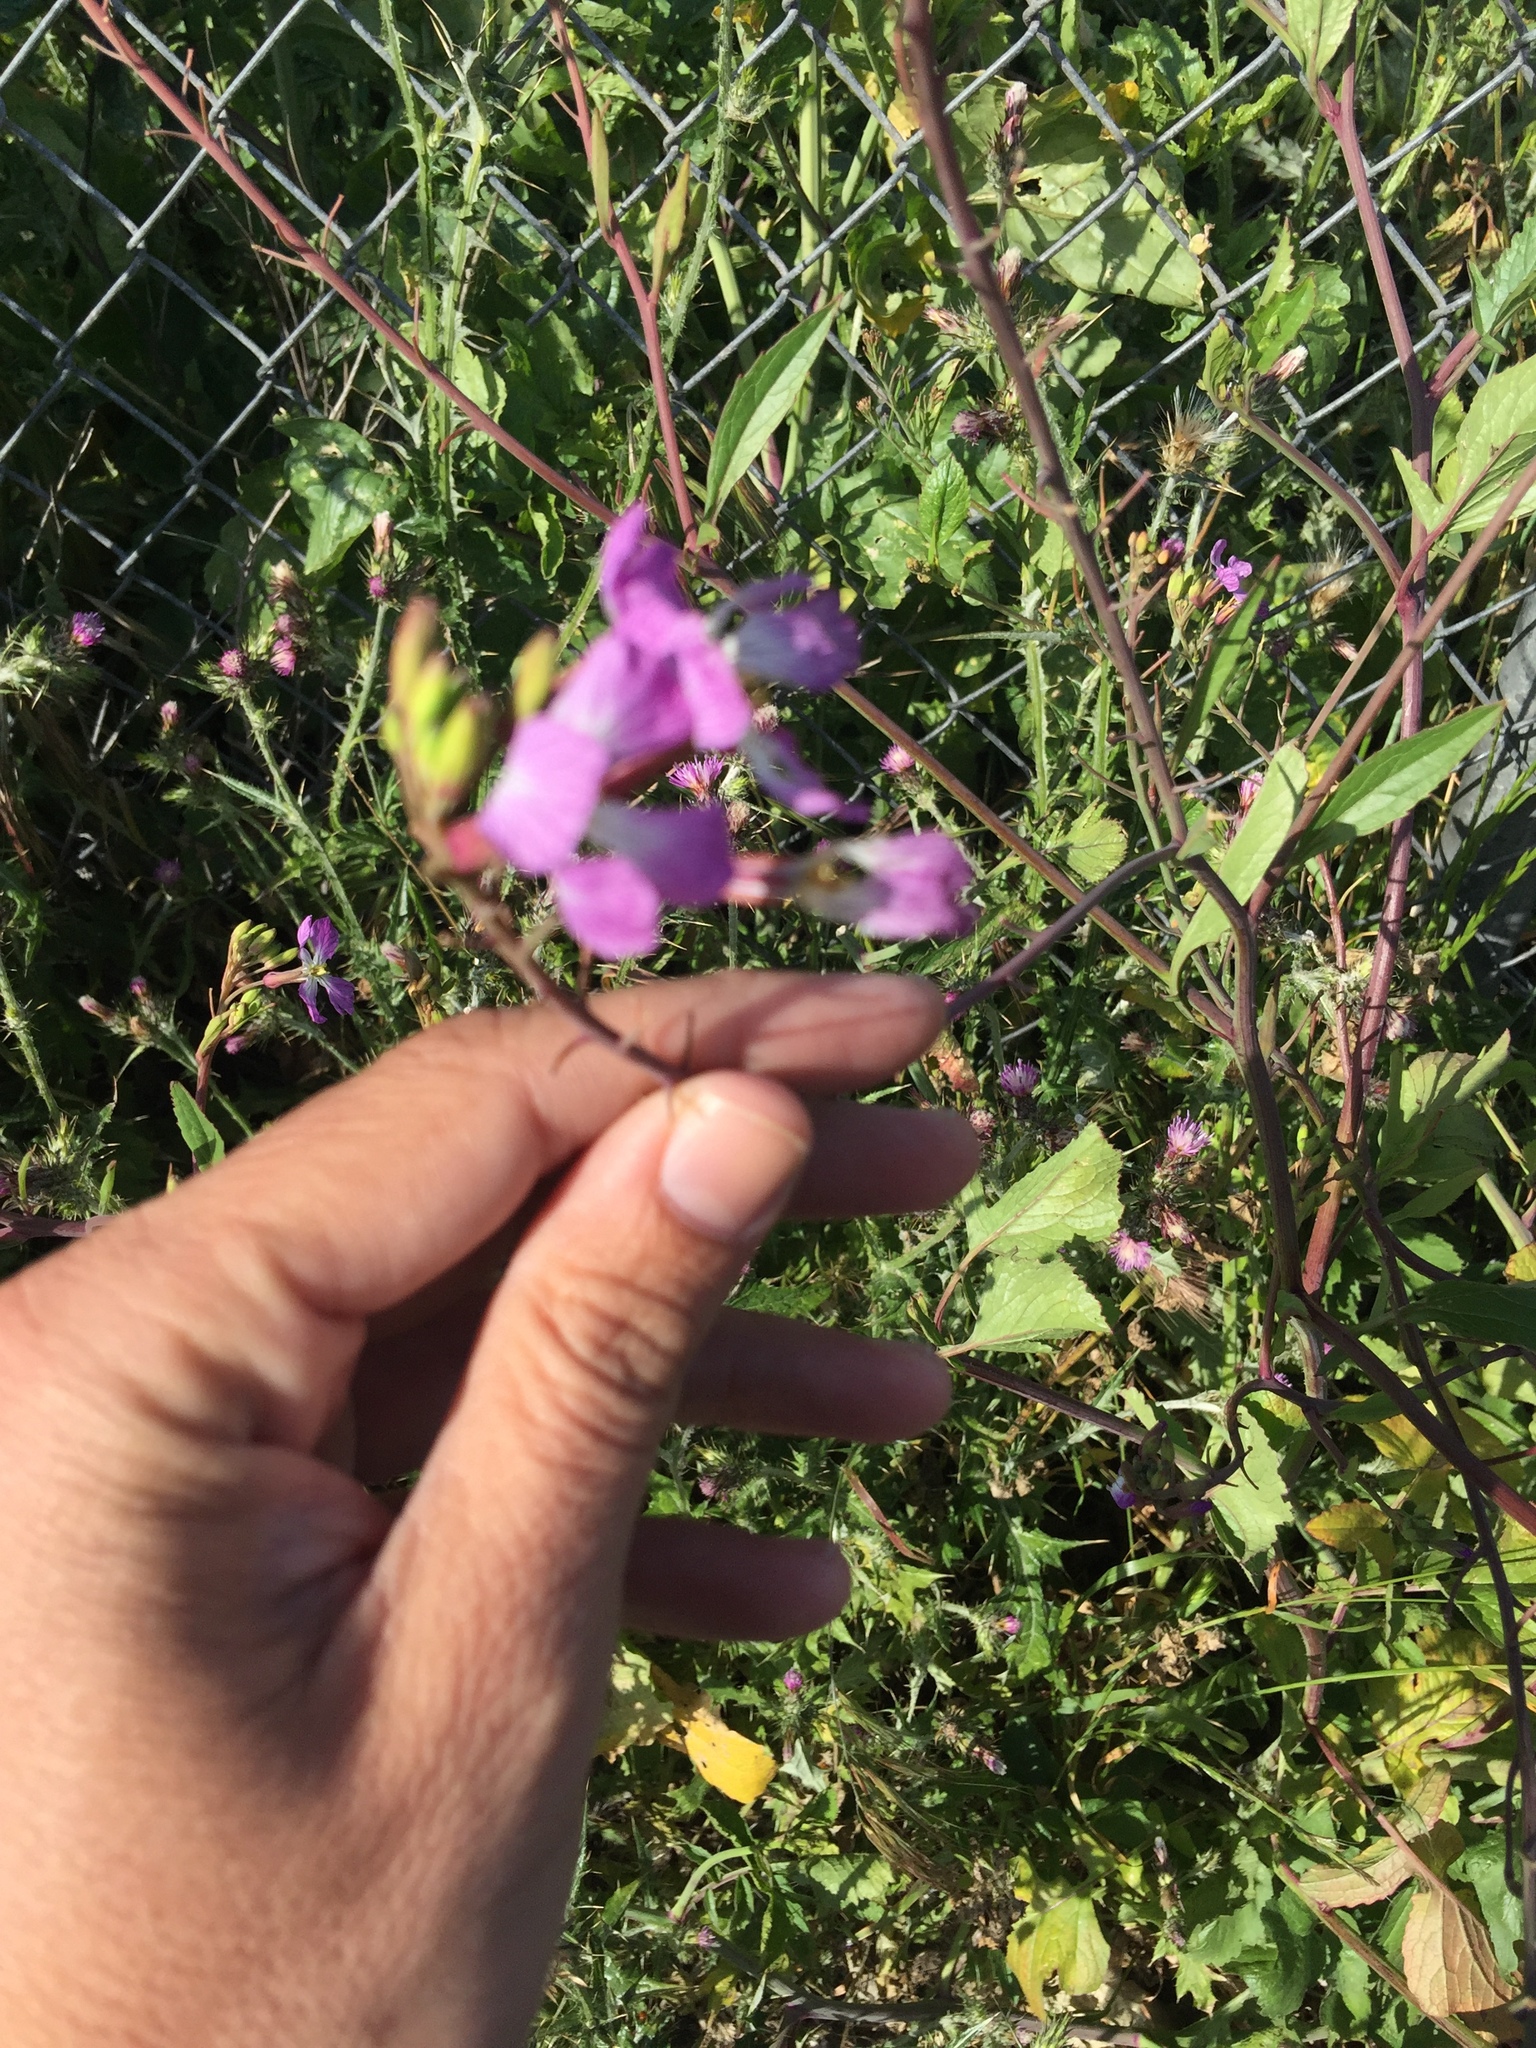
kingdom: Plantae
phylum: Tracheophyta
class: Magnoliopsida
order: Brassicales
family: Brassicaceae
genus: Raphanus
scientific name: Raphanus sativus
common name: Cultivated radish
